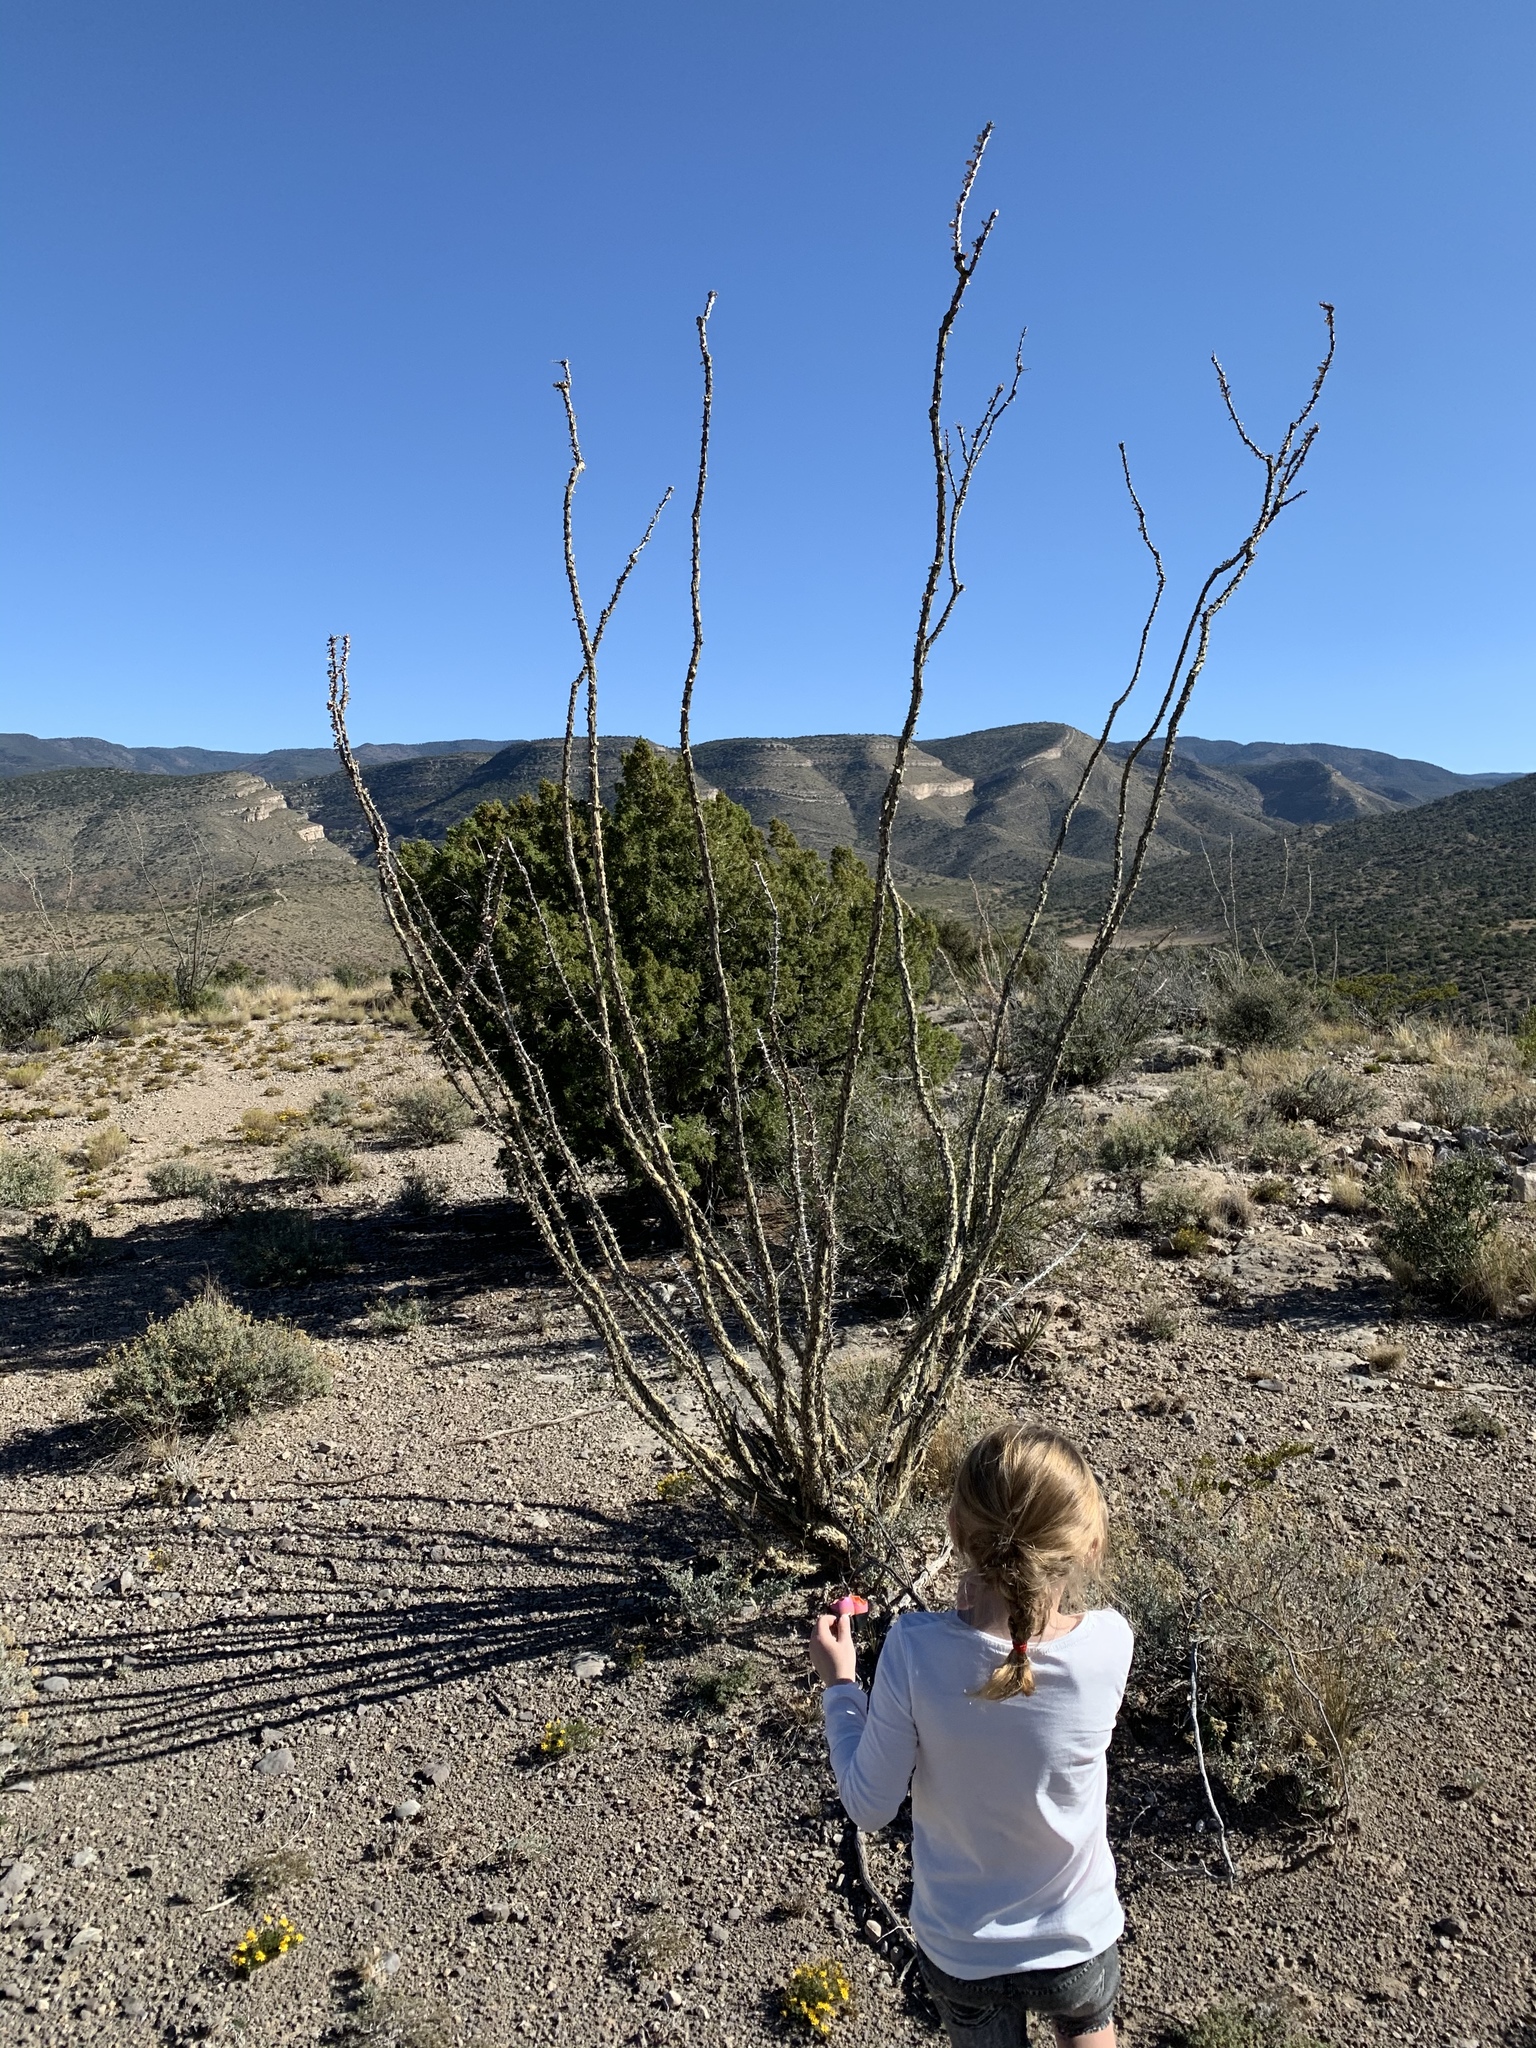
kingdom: Plantae
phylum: Tracheophyta
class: Magnoliopsida
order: Ericales
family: Fouquieriaceae
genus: Fouquieria
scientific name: Fouquieria splendens
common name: Vine-cactus
